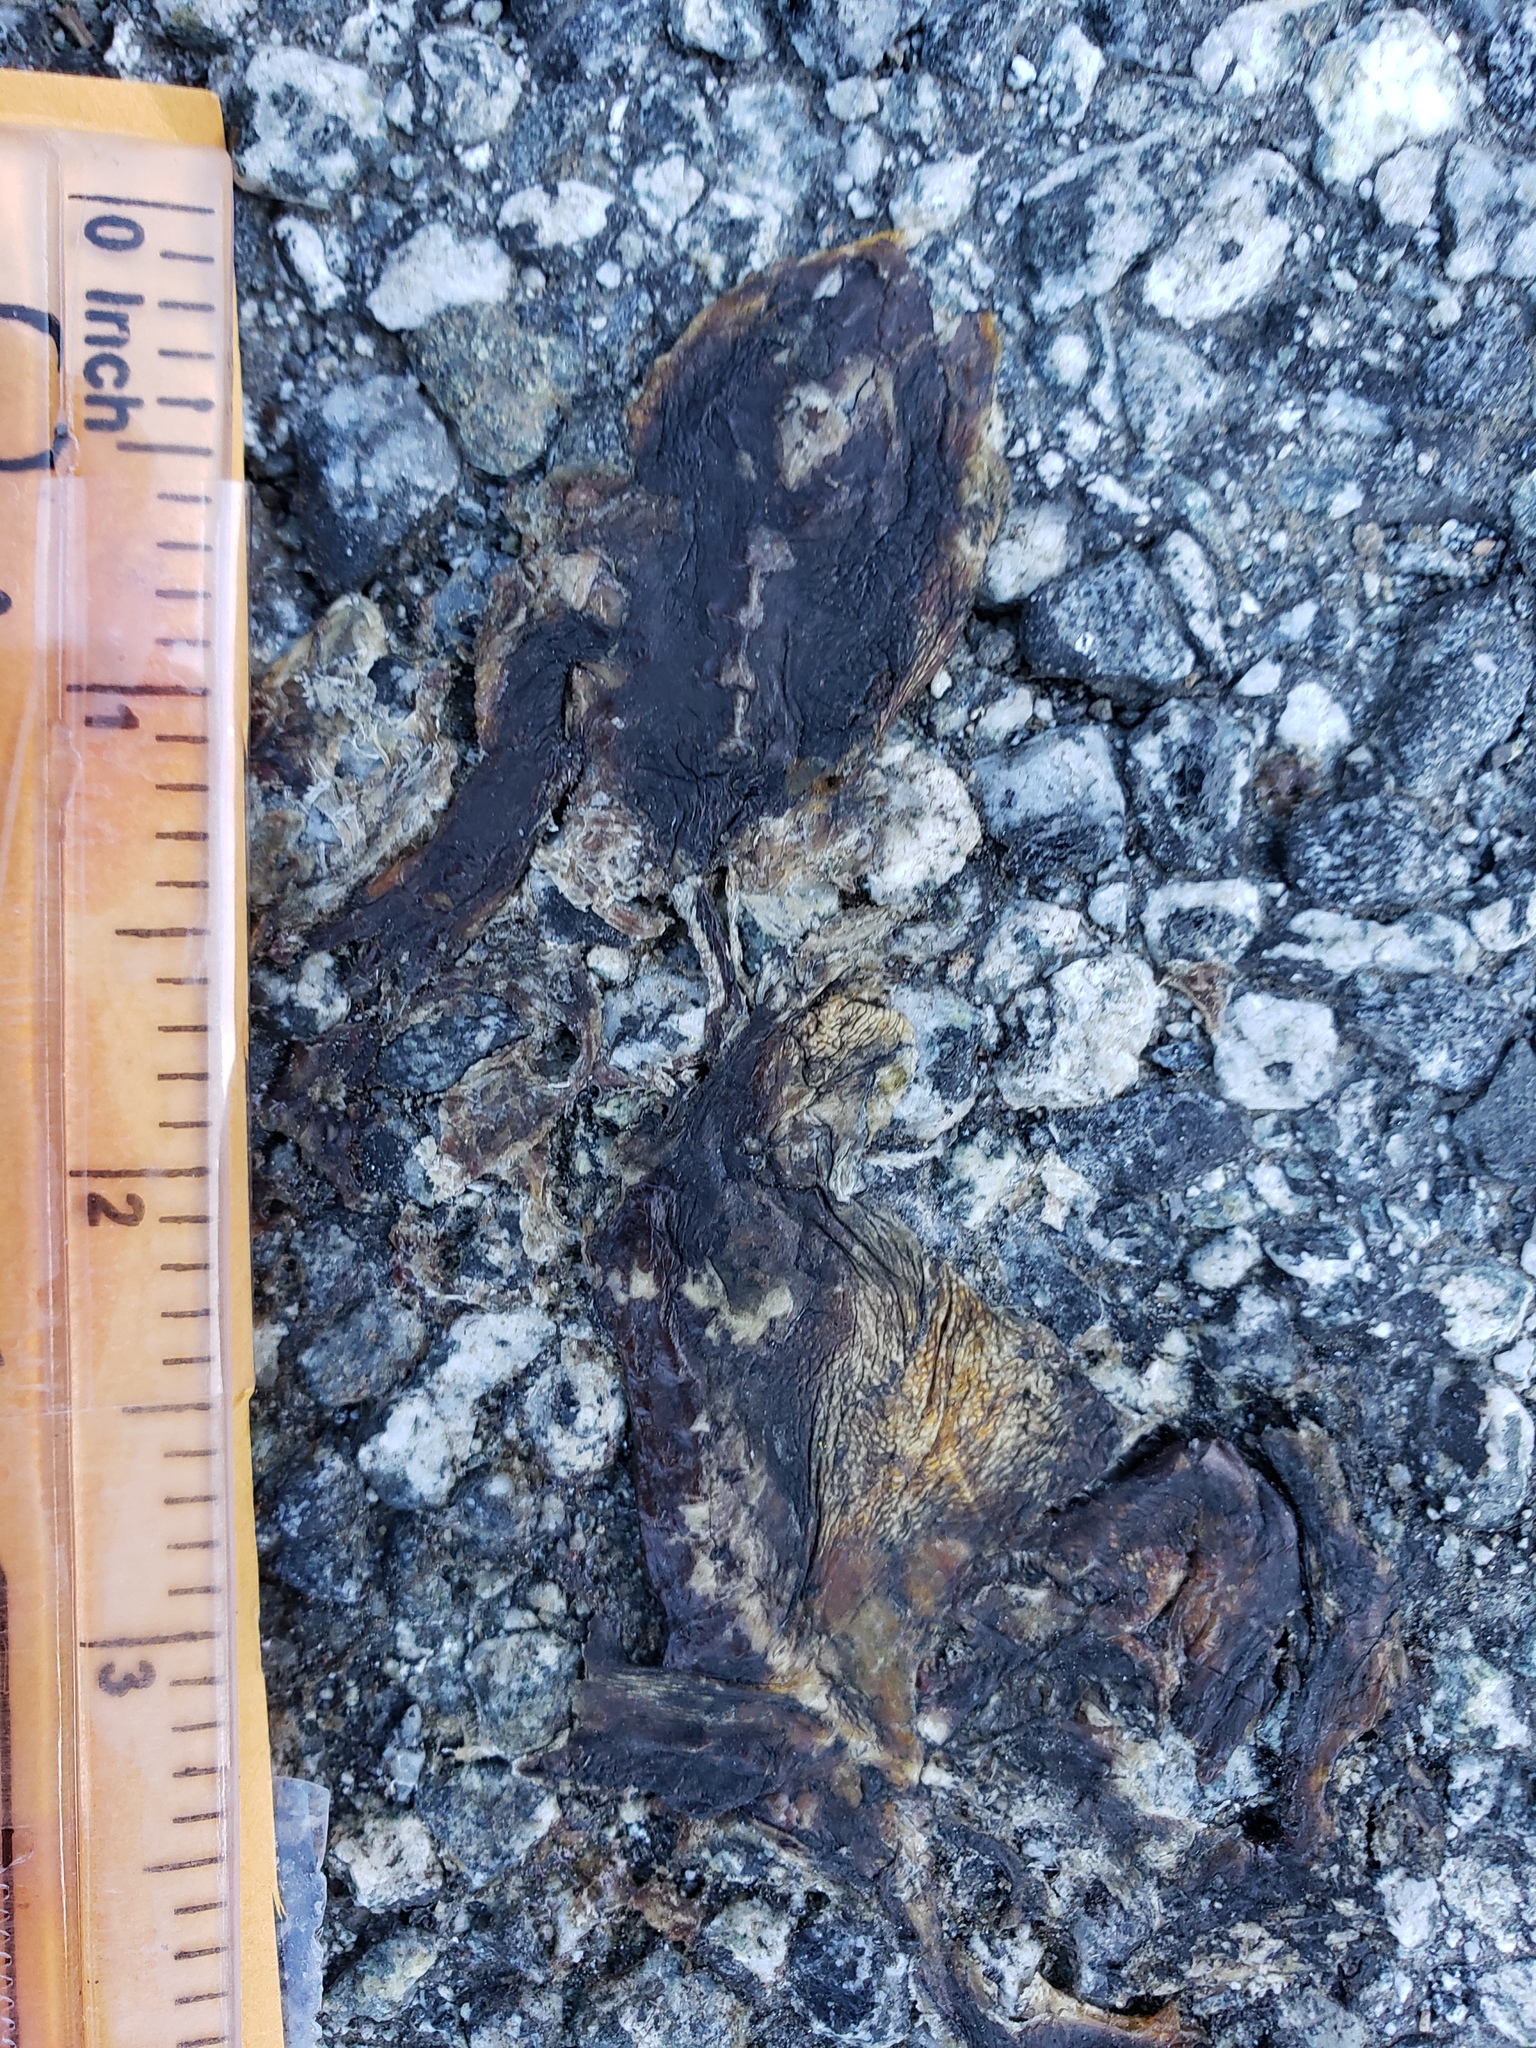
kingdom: Animalia
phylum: Chordata
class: Amphibia
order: Caudata
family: Salamandridae
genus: Taricha
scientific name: Taricha
